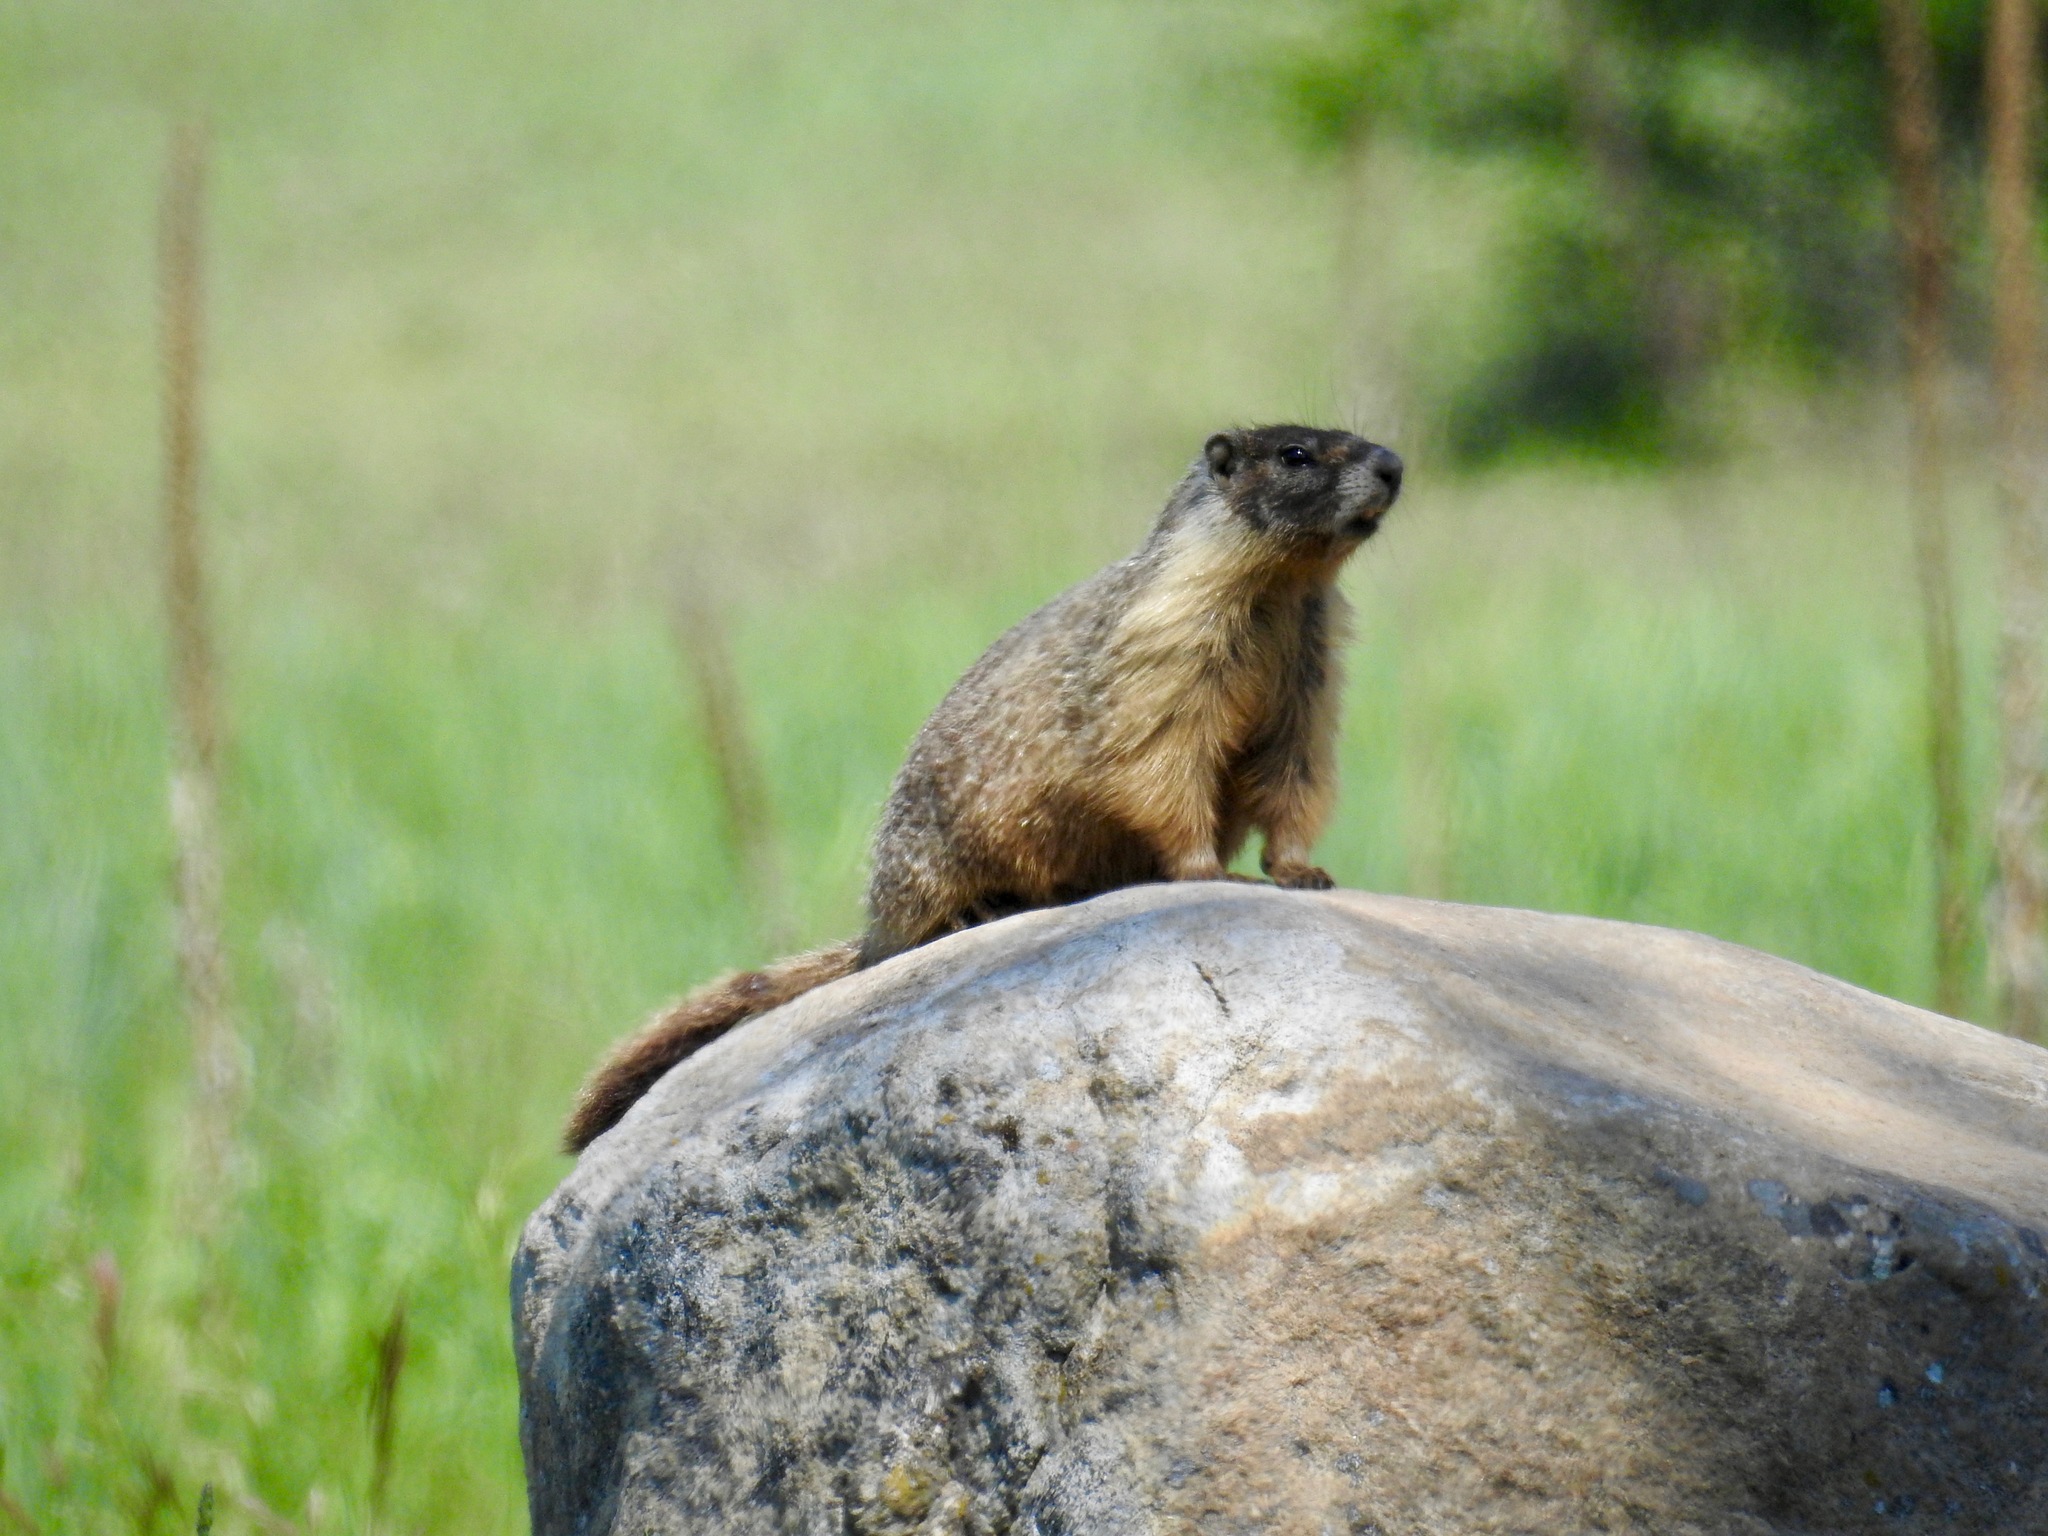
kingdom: Animalia
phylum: Chordata
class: Mammalia
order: Rodentia
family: Sciuridae
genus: Marmota
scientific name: Marmota flaviventris
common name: Yellow-bellied marmot
